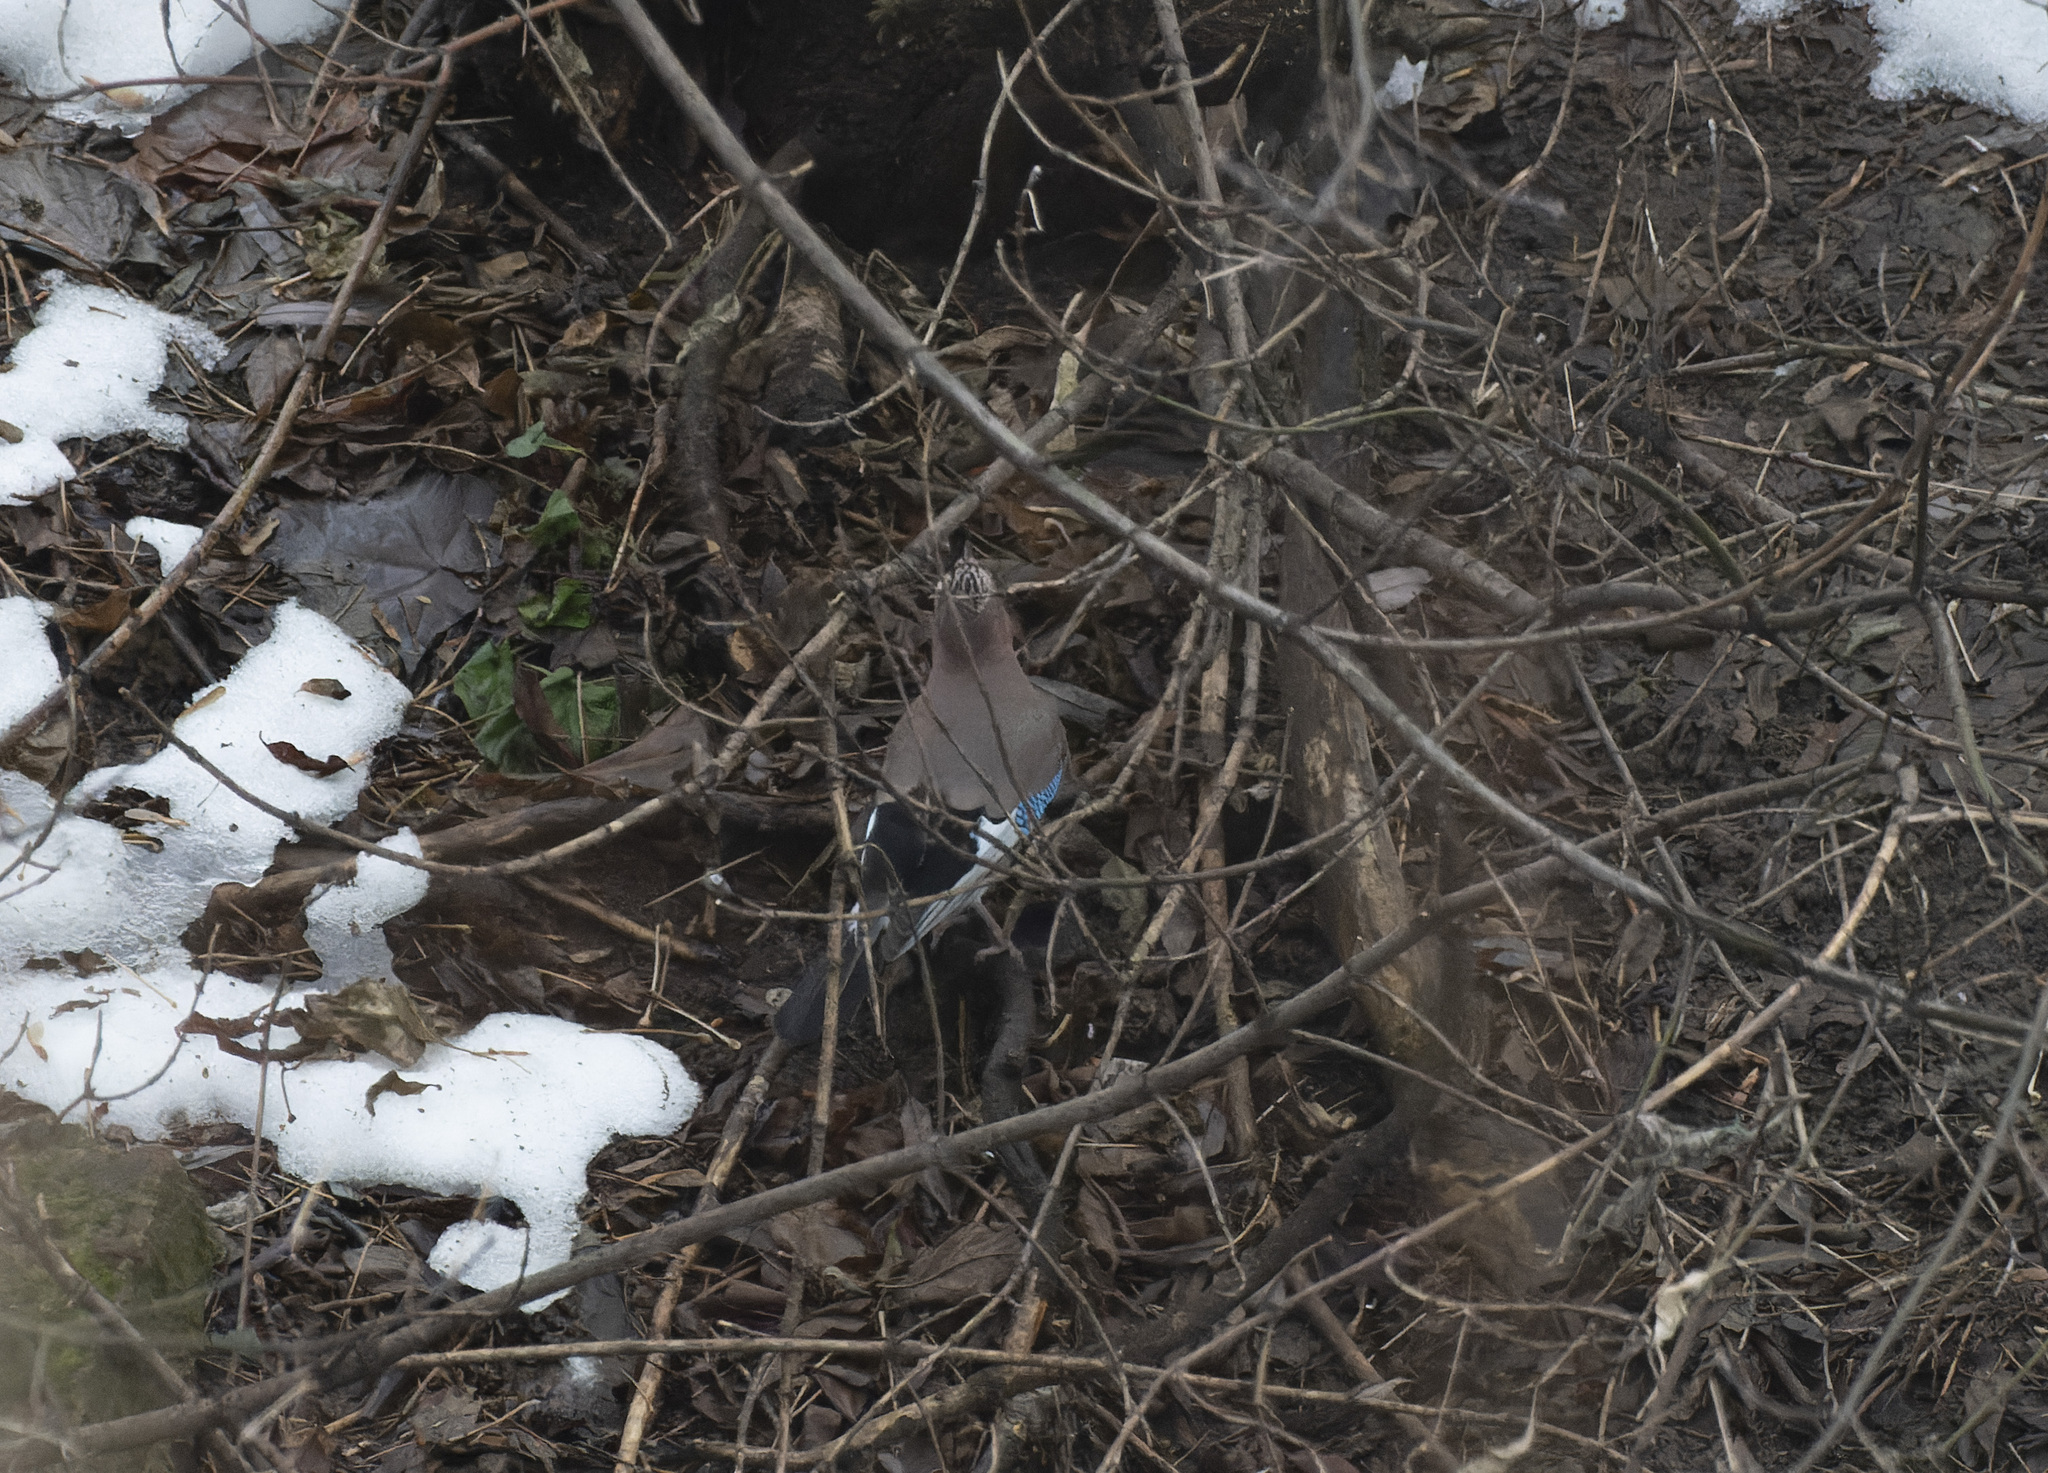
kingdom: Animalia
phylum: Chordata
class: Aves
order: Passeriformes
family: Corvidae
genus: Garrulus
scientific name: Garrulus glandarius
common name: Eurasian jay
